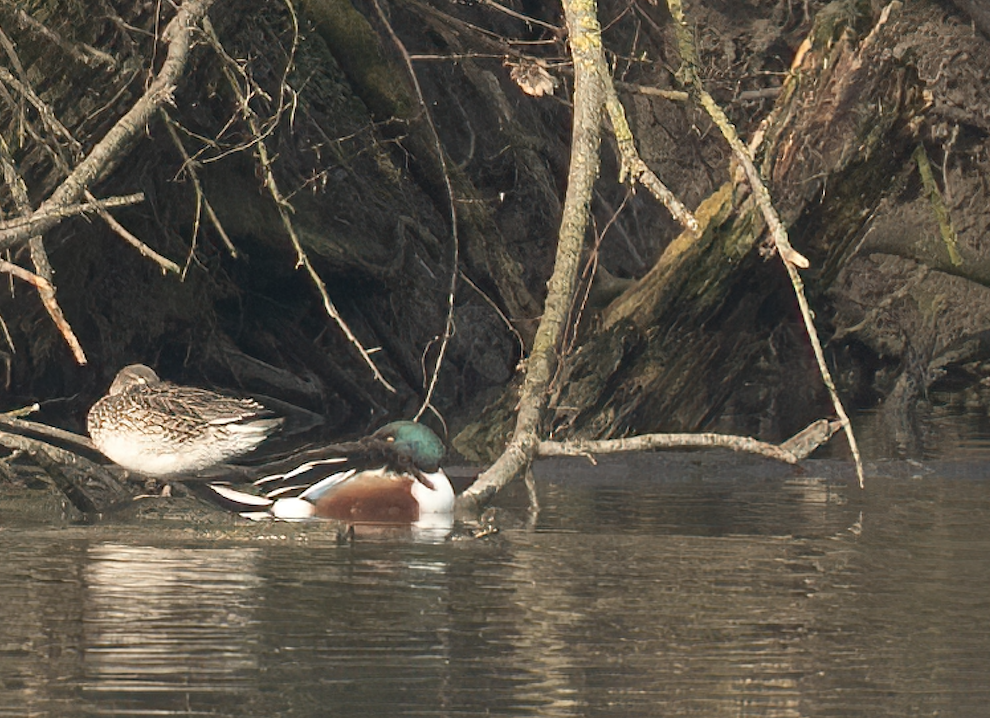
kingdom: Animalia
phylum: Chordata
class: Aves
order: Anseriformes
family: Anatidae
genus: Spatula
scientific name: Spatula clypeata
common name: Northern shoveler
